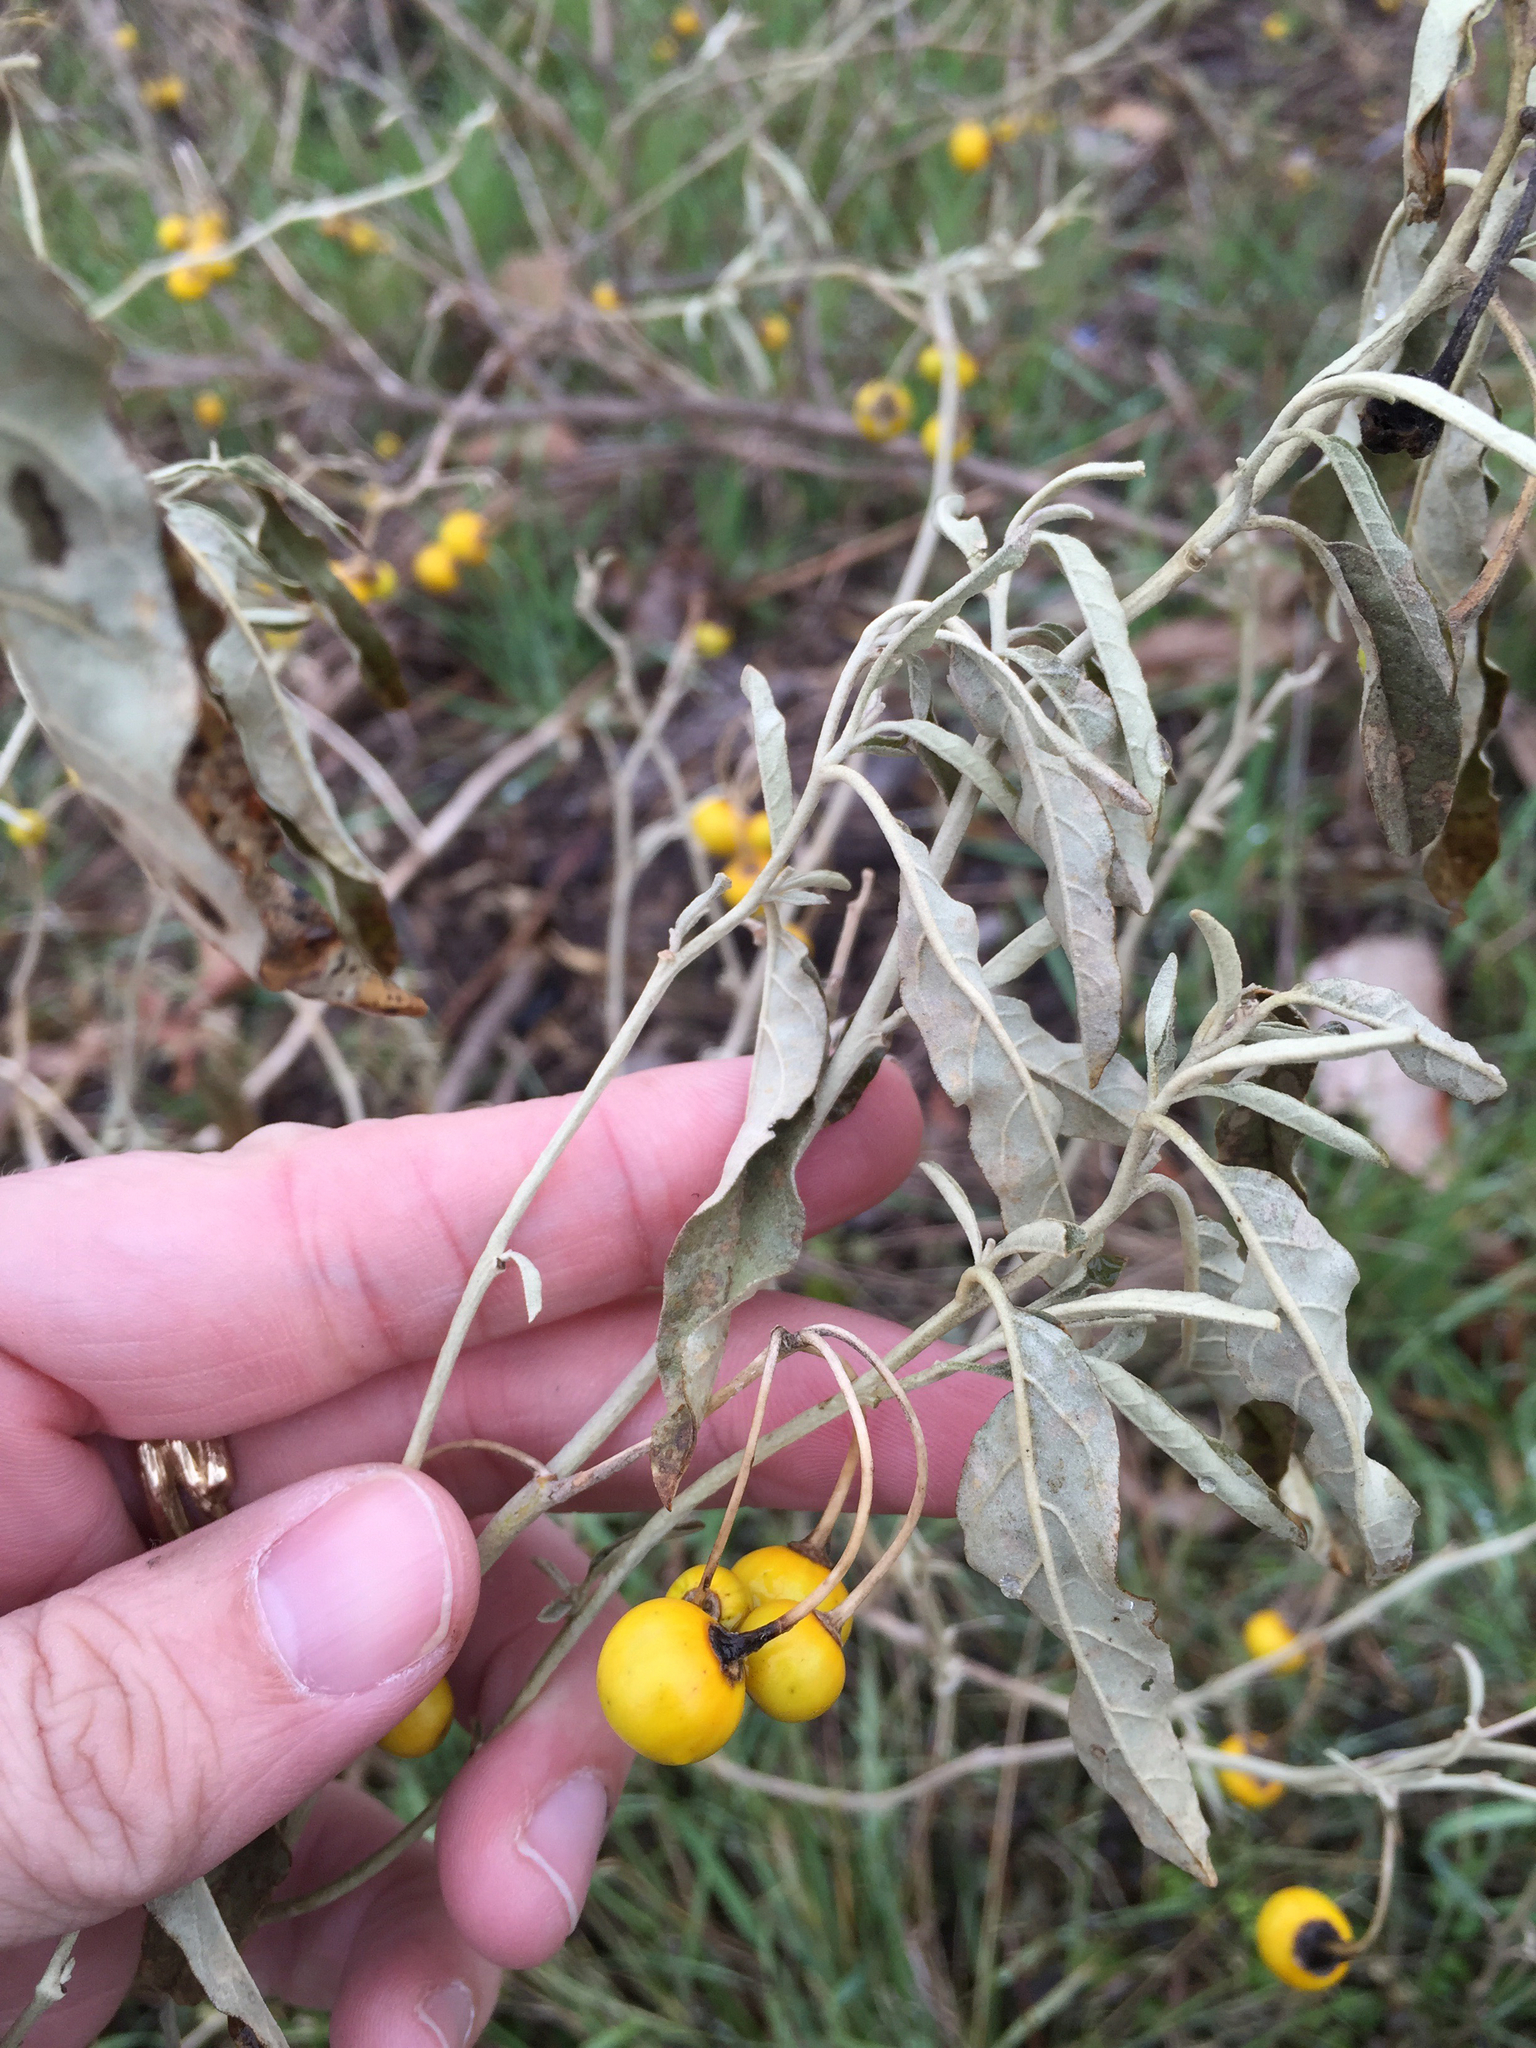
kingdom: Plantae
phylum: Tracheophyta
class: Magnoliopsida
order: Solanales
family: Solanaceae
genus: Solanum
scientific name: Solanum elaeagnifolium
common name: Silverleaf nightshade
